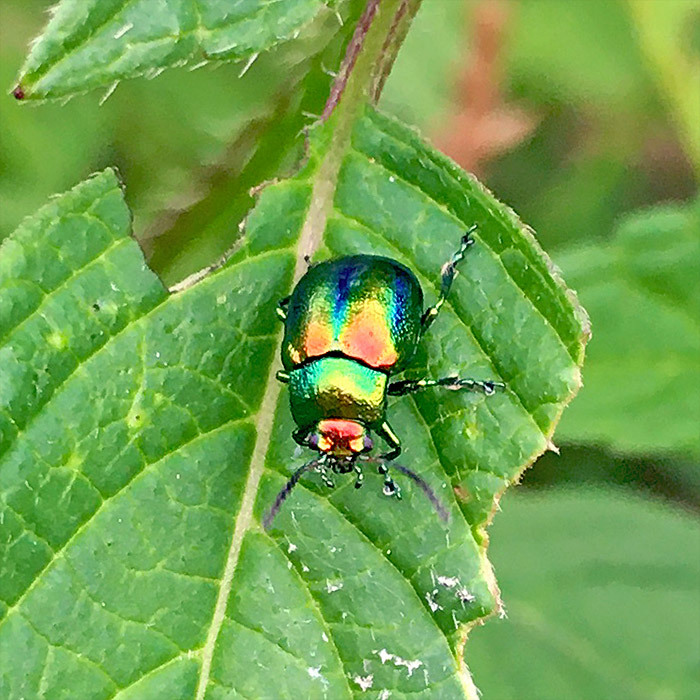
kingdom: Animalia
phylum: Arthropoda
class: Insecta
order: Coleoptera
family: Chrysomelidae
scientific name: Chrysomelidae
